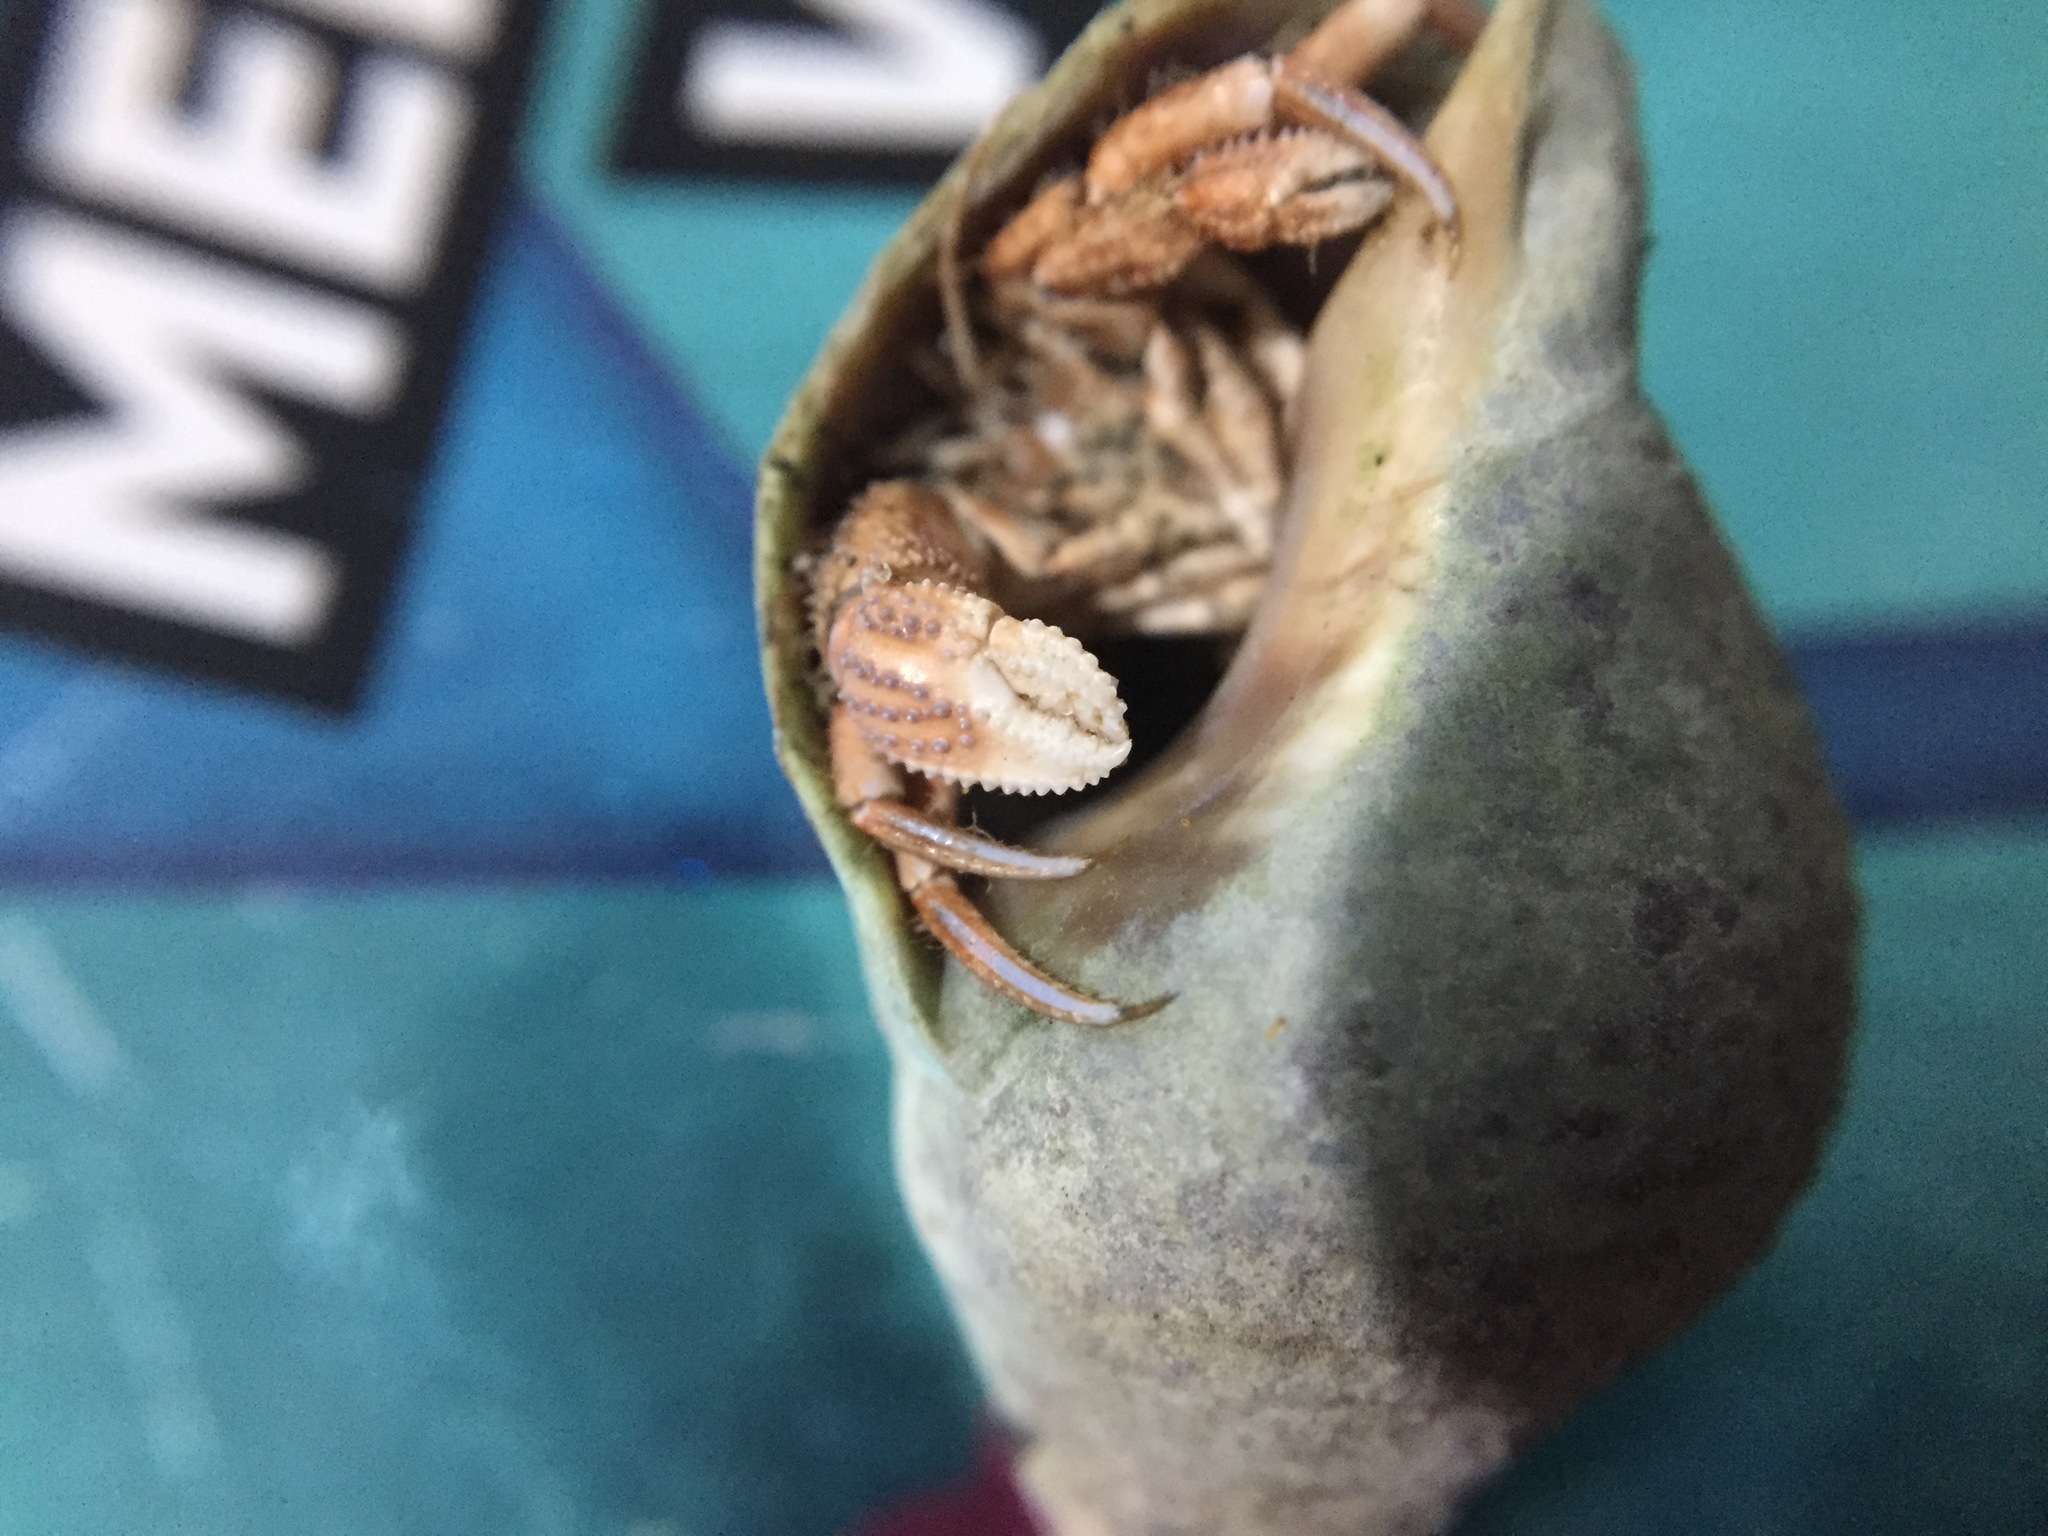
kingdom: Animalia
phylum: Arthropoda
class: Malacostraca
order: Decapoda
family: Paguridae
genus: Pagurus
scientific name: Pagurus novizealandiae
